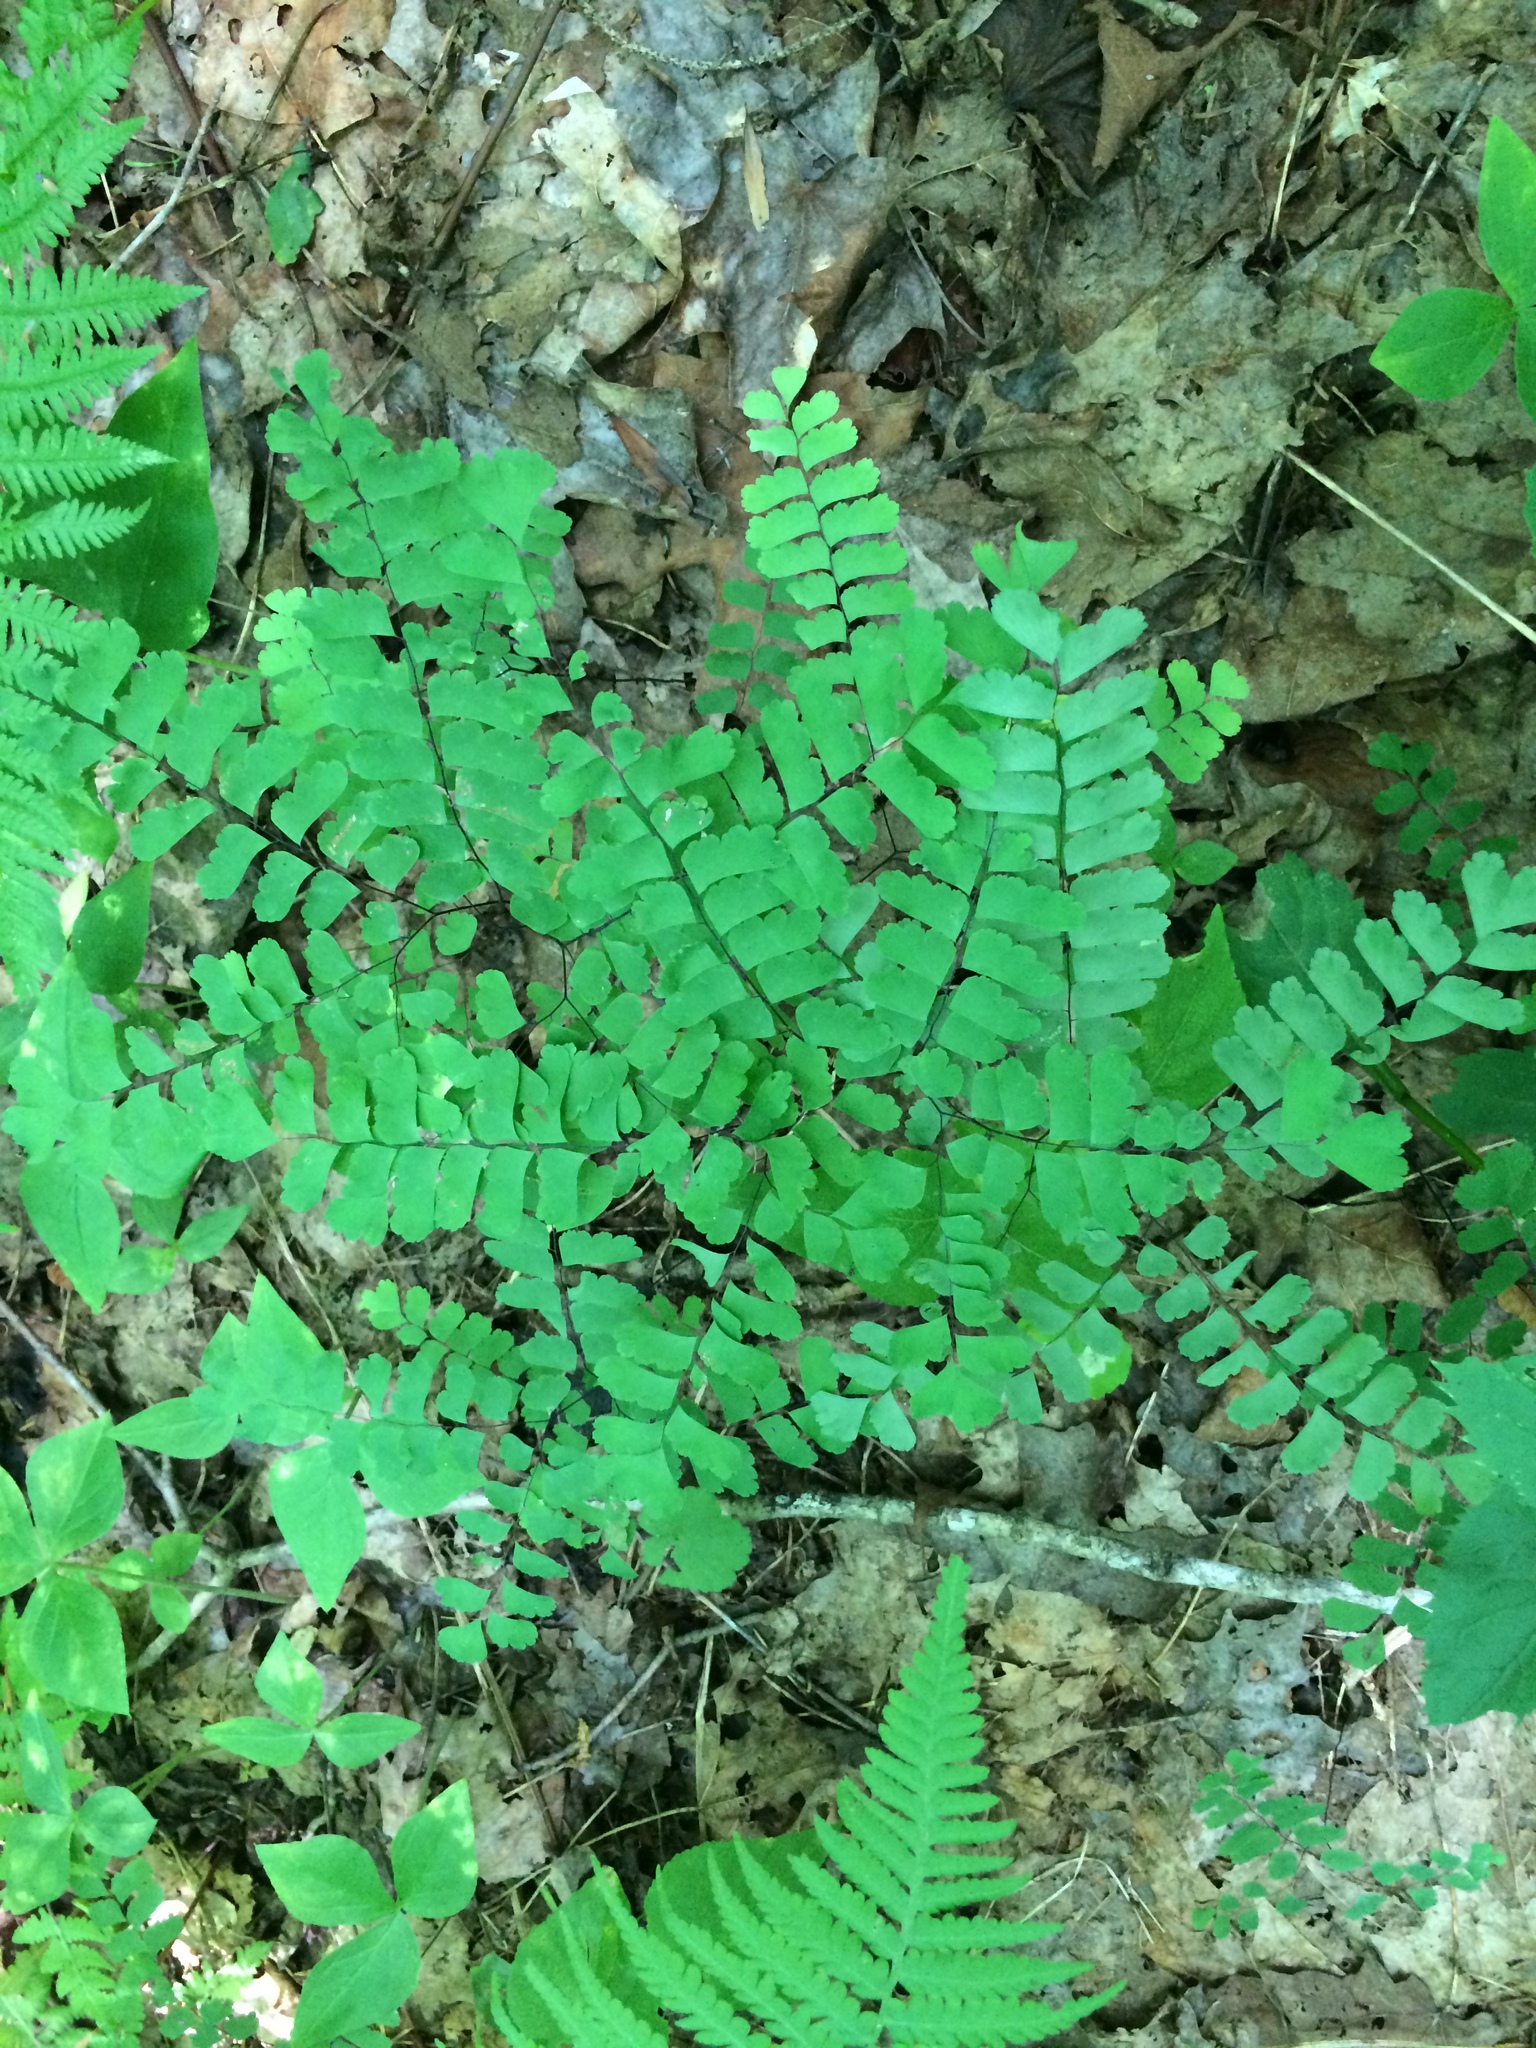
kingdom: Plantae
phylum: Tracheophyta
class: Polypodiopsida
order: Polypodiales
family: Pteridaceae
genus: Adiantum
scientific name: Adiantum pedatum
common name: Five-finger fern
